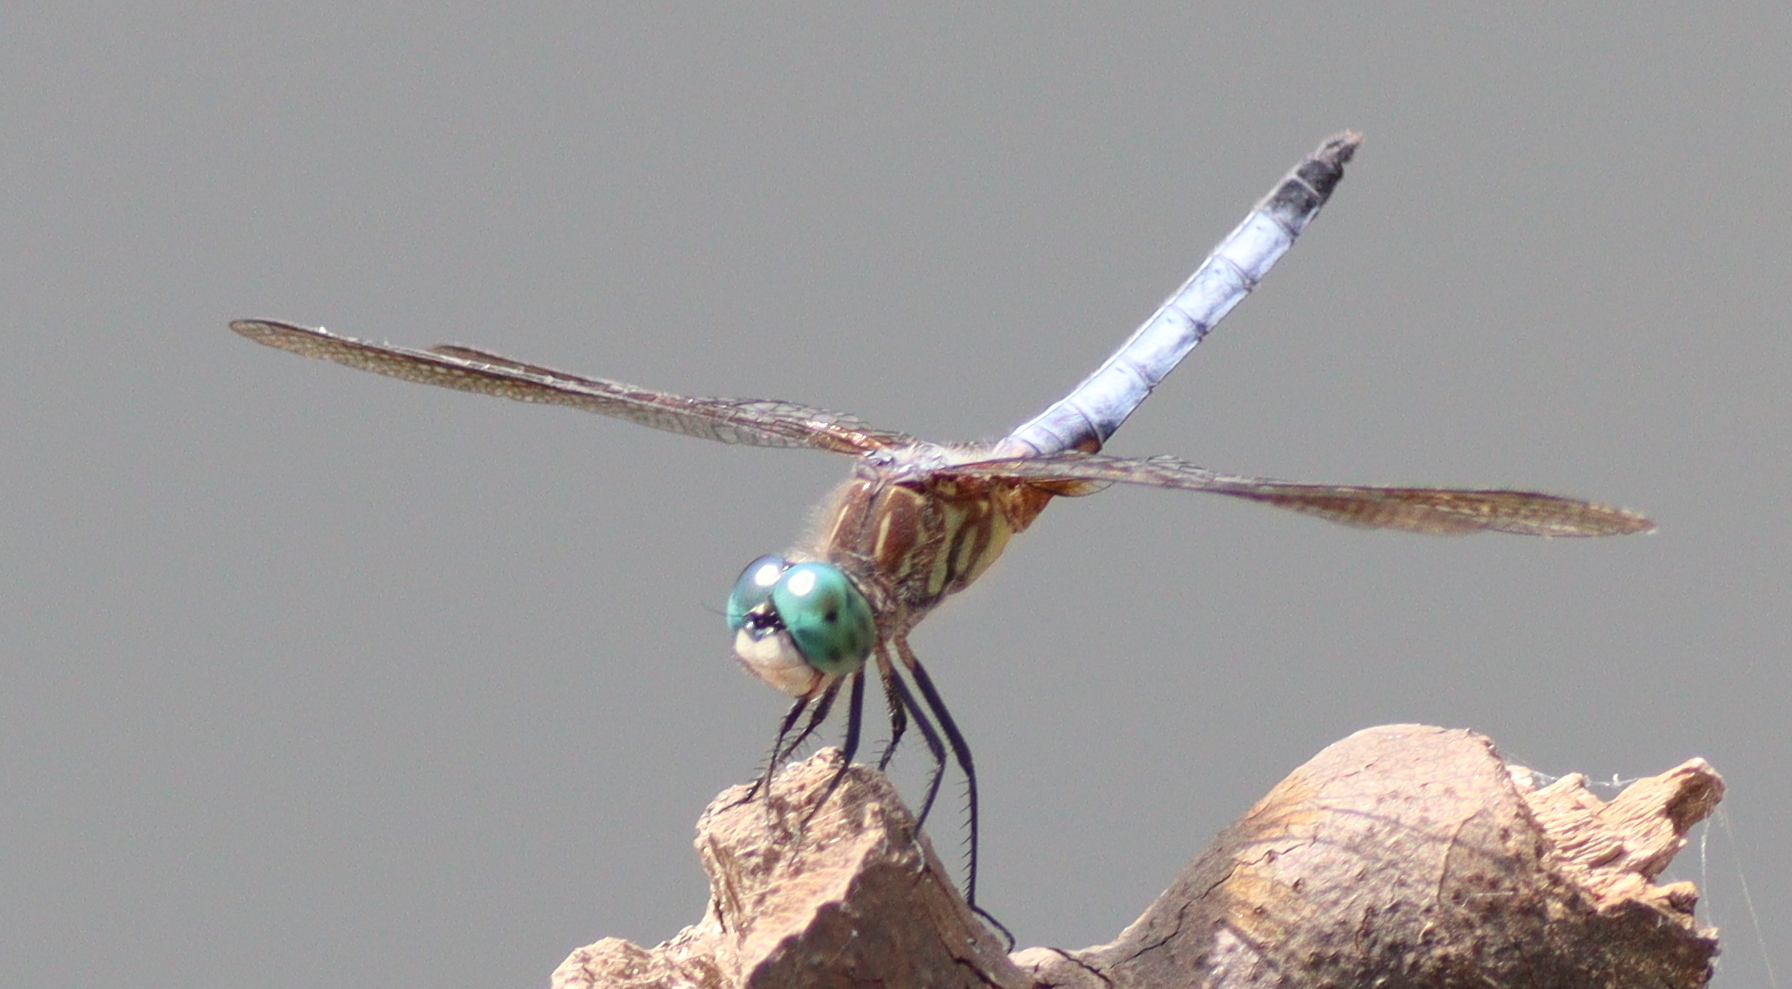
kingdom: Animalia
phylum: Arthropoda
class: Insecta
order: Odonata
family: Libellulidae
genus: Pachydiplax
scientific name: Pachydiplax longipennis
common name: Blue dasher
